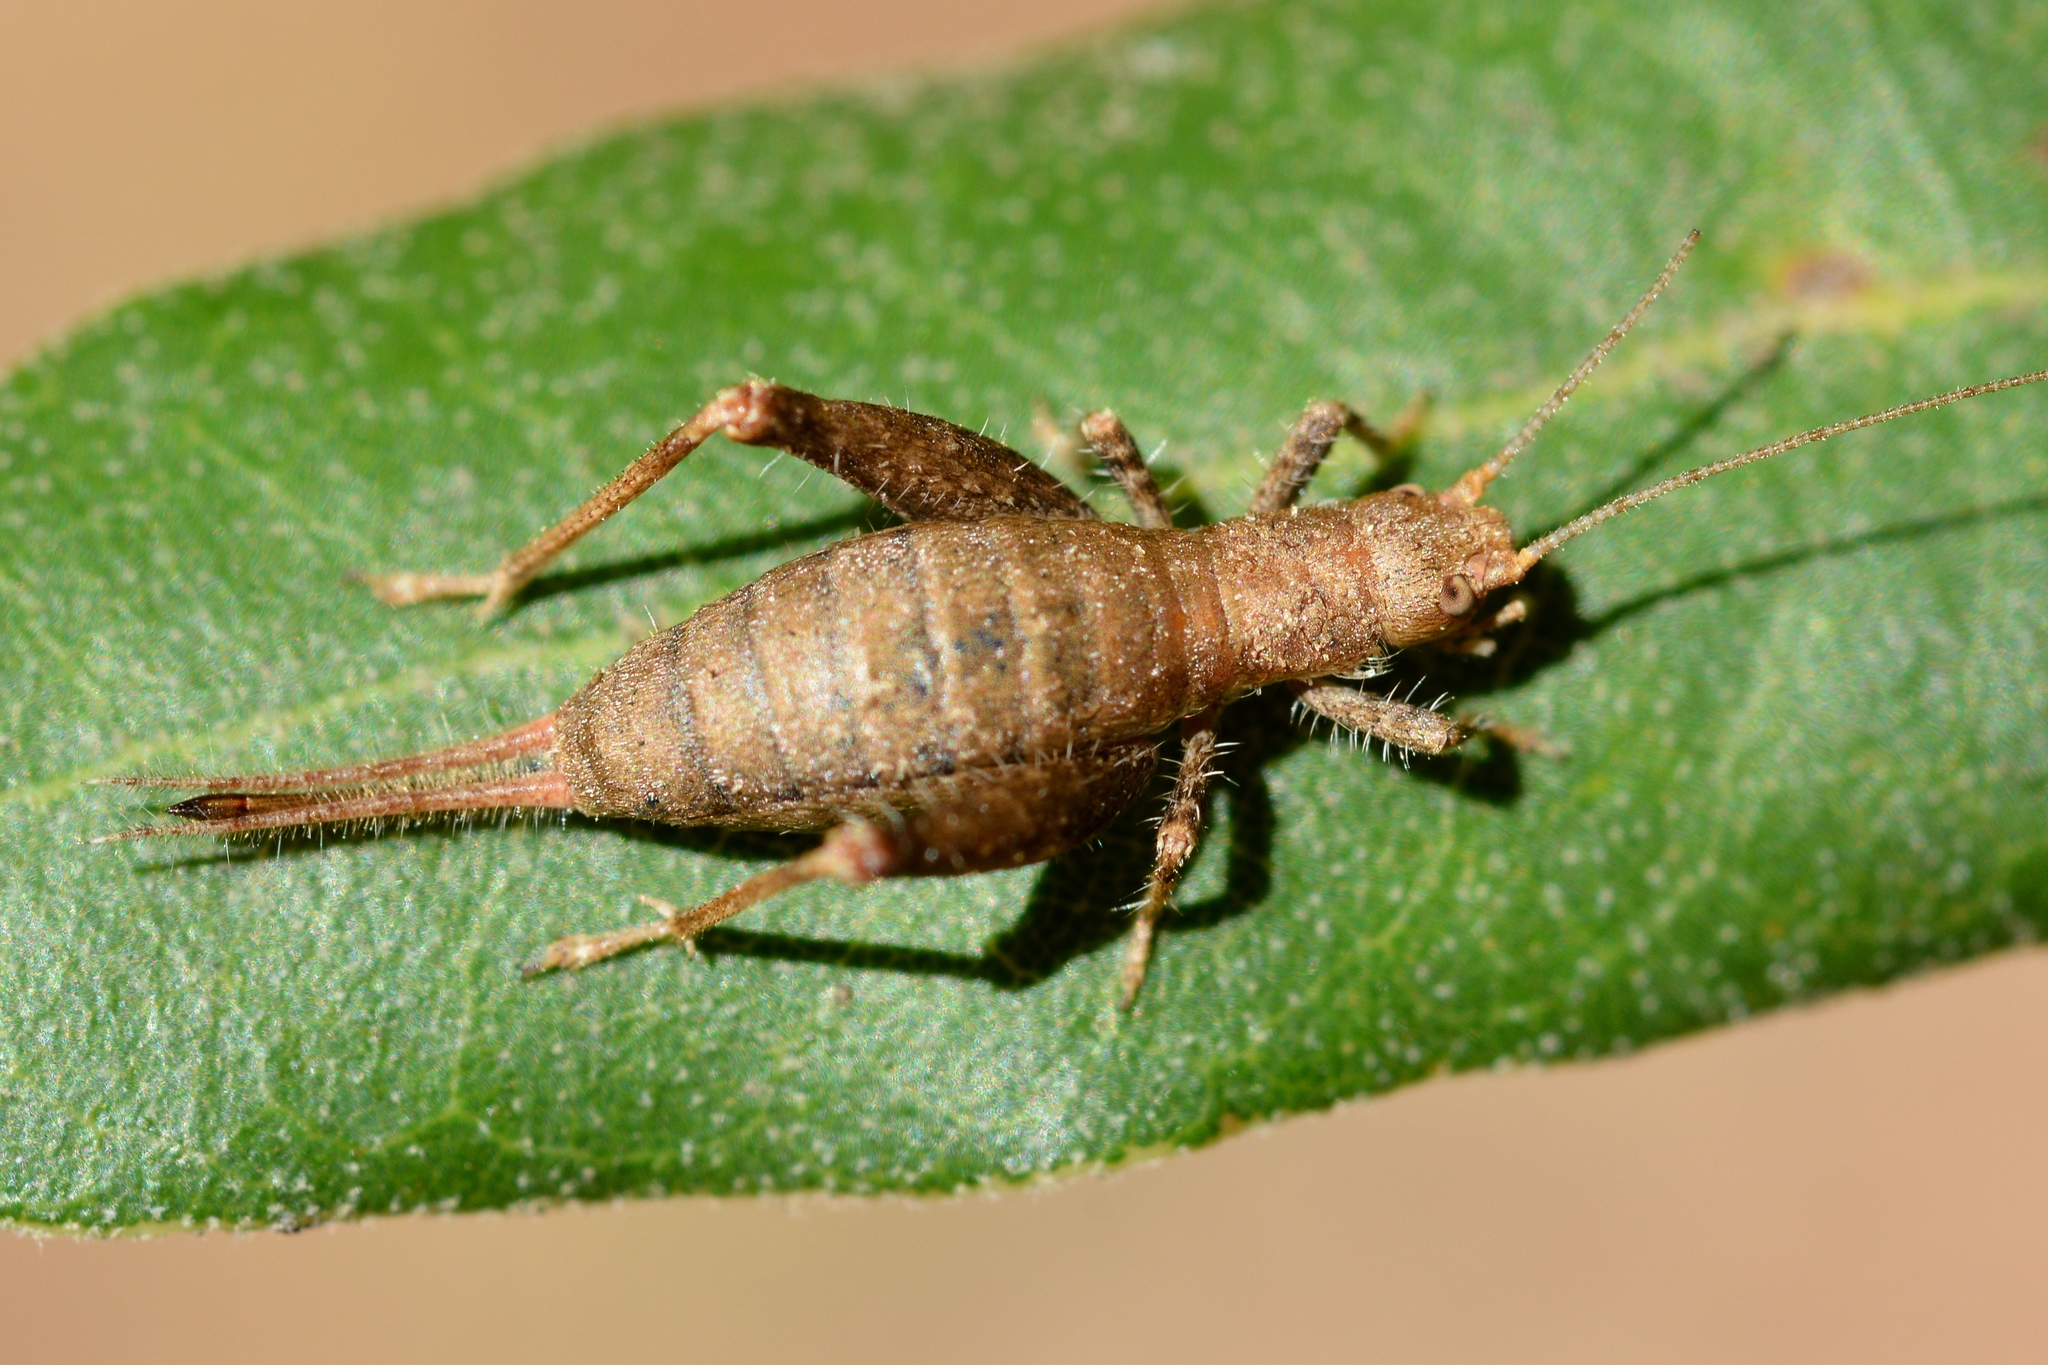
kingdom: Animalia
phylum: Arthropoda
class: Insecta
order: Orthoptera
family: Mogoplistidae
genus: Arachnocephalus
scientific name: Arachnocephalus vestitus
